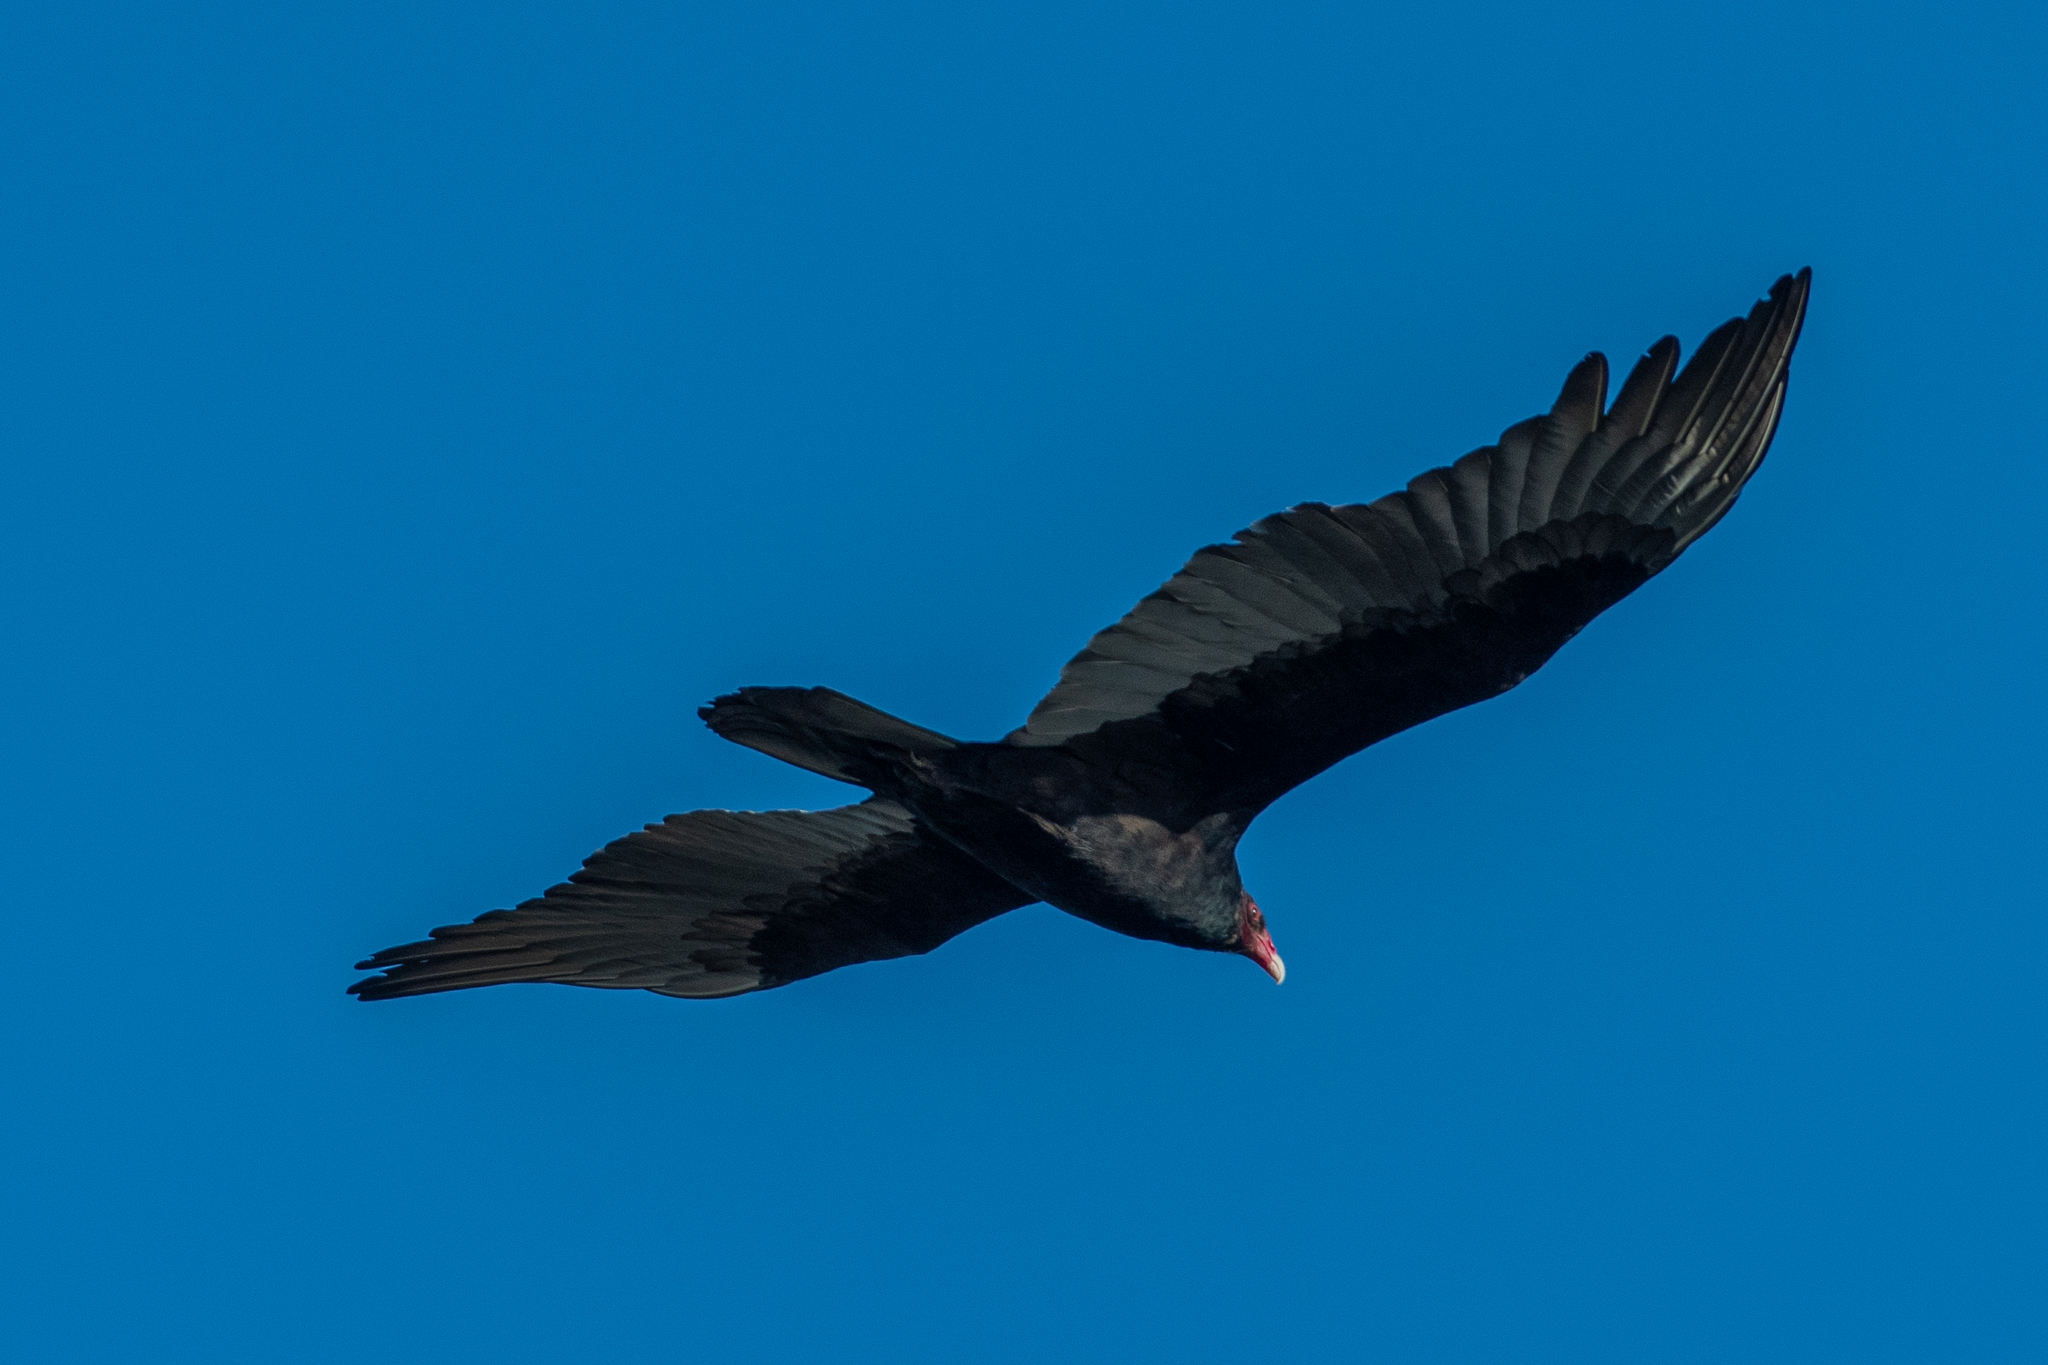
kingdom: Animalia
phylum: Chordata
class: Aves
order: Accipitriformes
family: Cathartidae
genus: Cathartes
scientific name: Cathartes aura
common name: Turkey vulture
